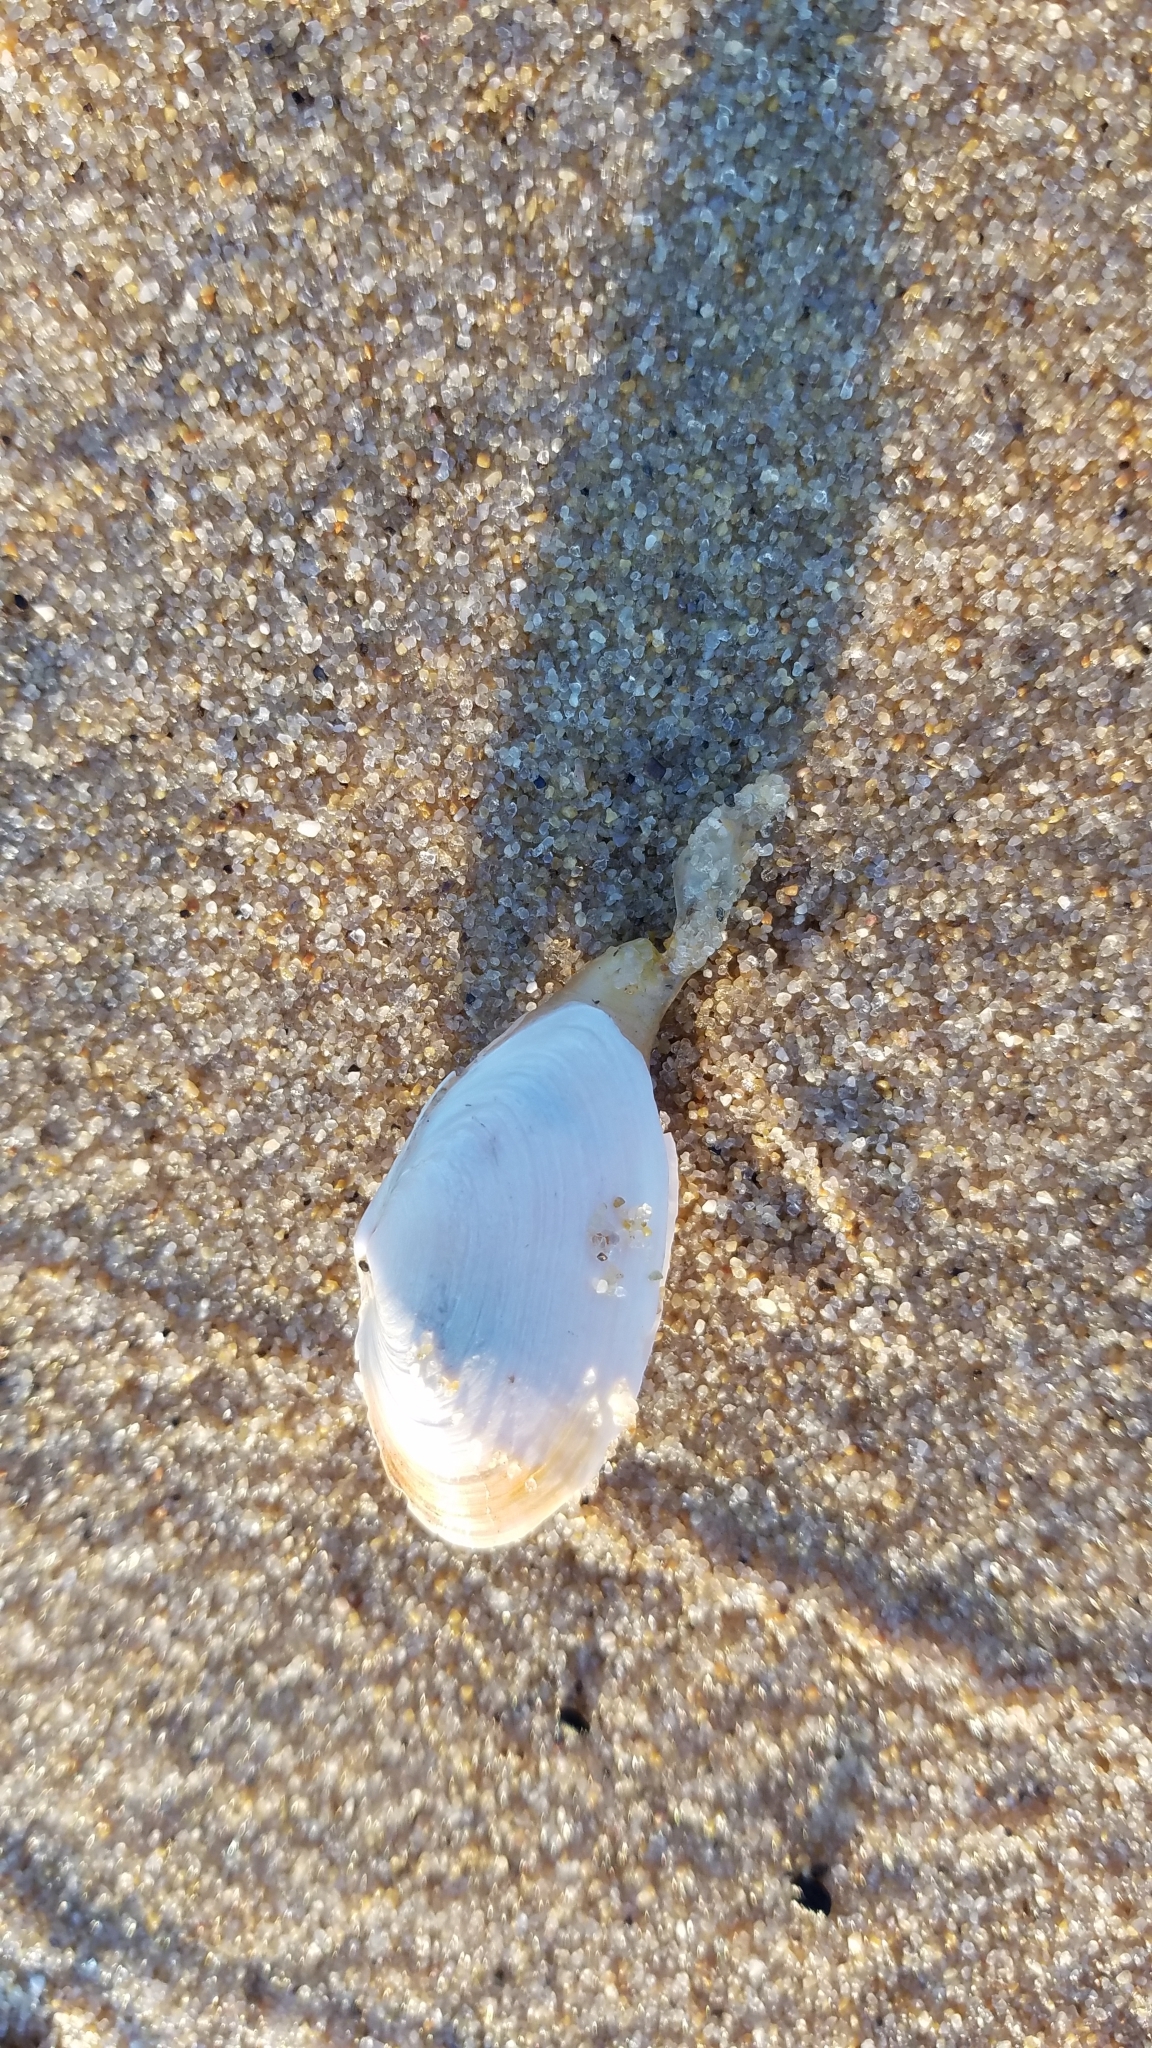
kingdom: Animalia
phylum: Mollusca
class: Bivalvia
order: Myida
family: Myidae
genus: Mya
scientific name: Mya arenaria
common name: Soft-shelled clam
